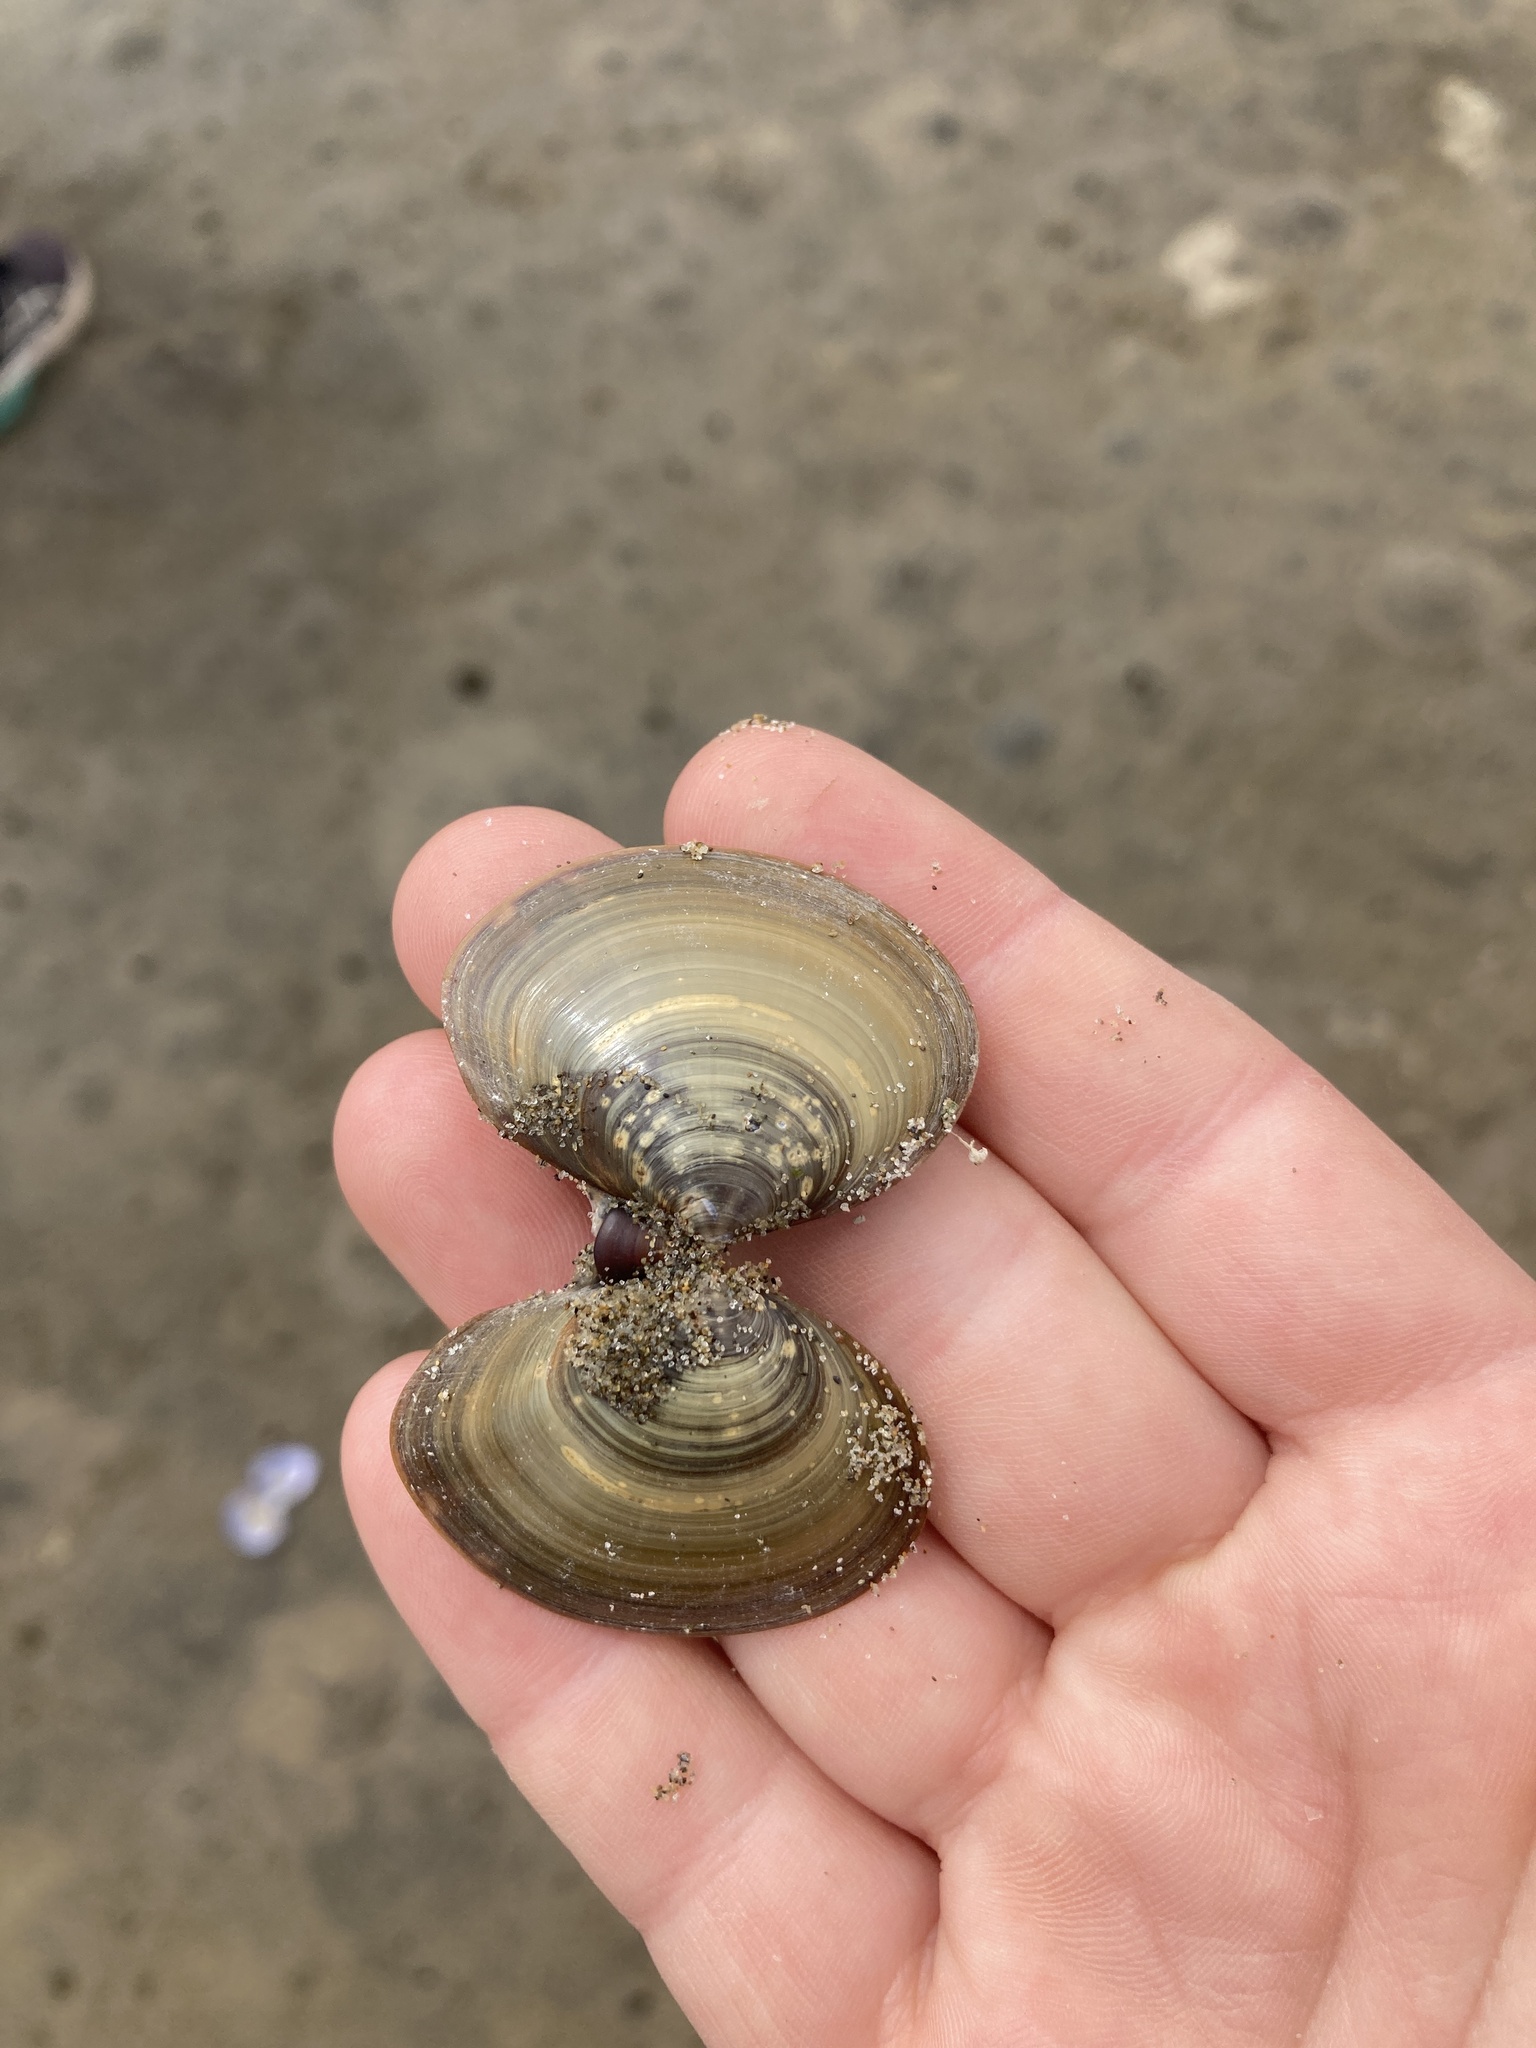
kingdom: Animalia
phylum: Mollusca
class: Bivalvia
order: Cardiida
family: Psammobiidae
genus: Nuttallia
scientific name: Nuttallia obscurata
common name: Purple mahogany-clam
